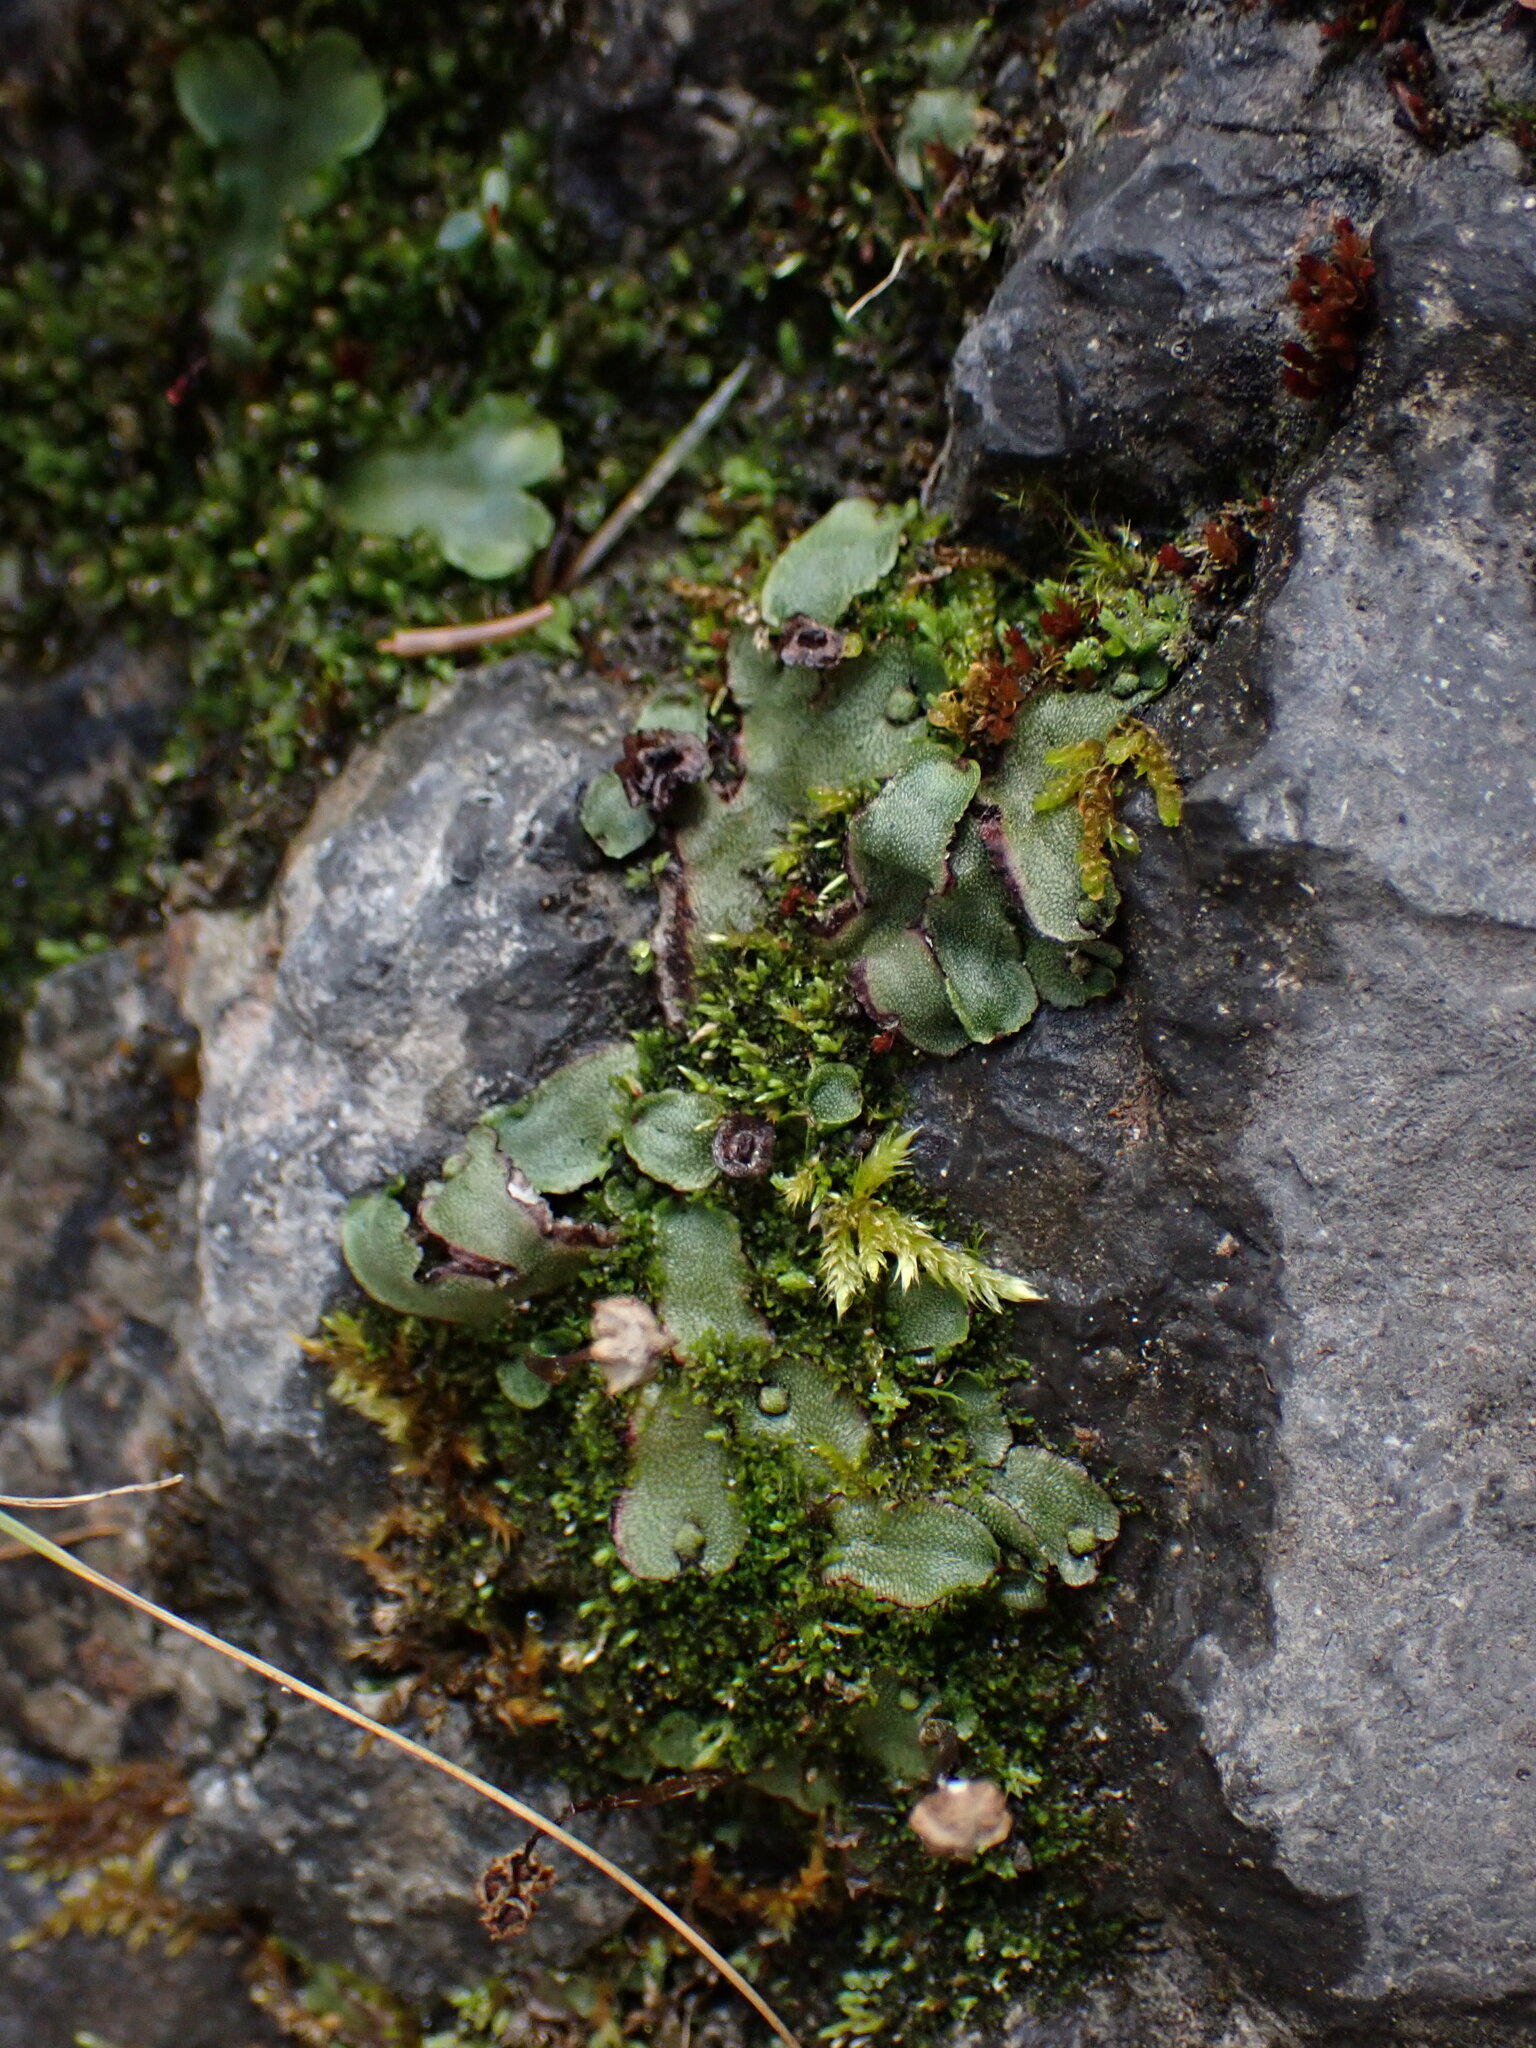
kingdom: Plantae
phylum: Marchantiophyta
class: Marchantiopsida
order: Marchantiales
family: Marchantiaceae
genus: Marchantia
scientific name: Marchantia quadrata
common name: Narrow mushroom-headed liverwort
